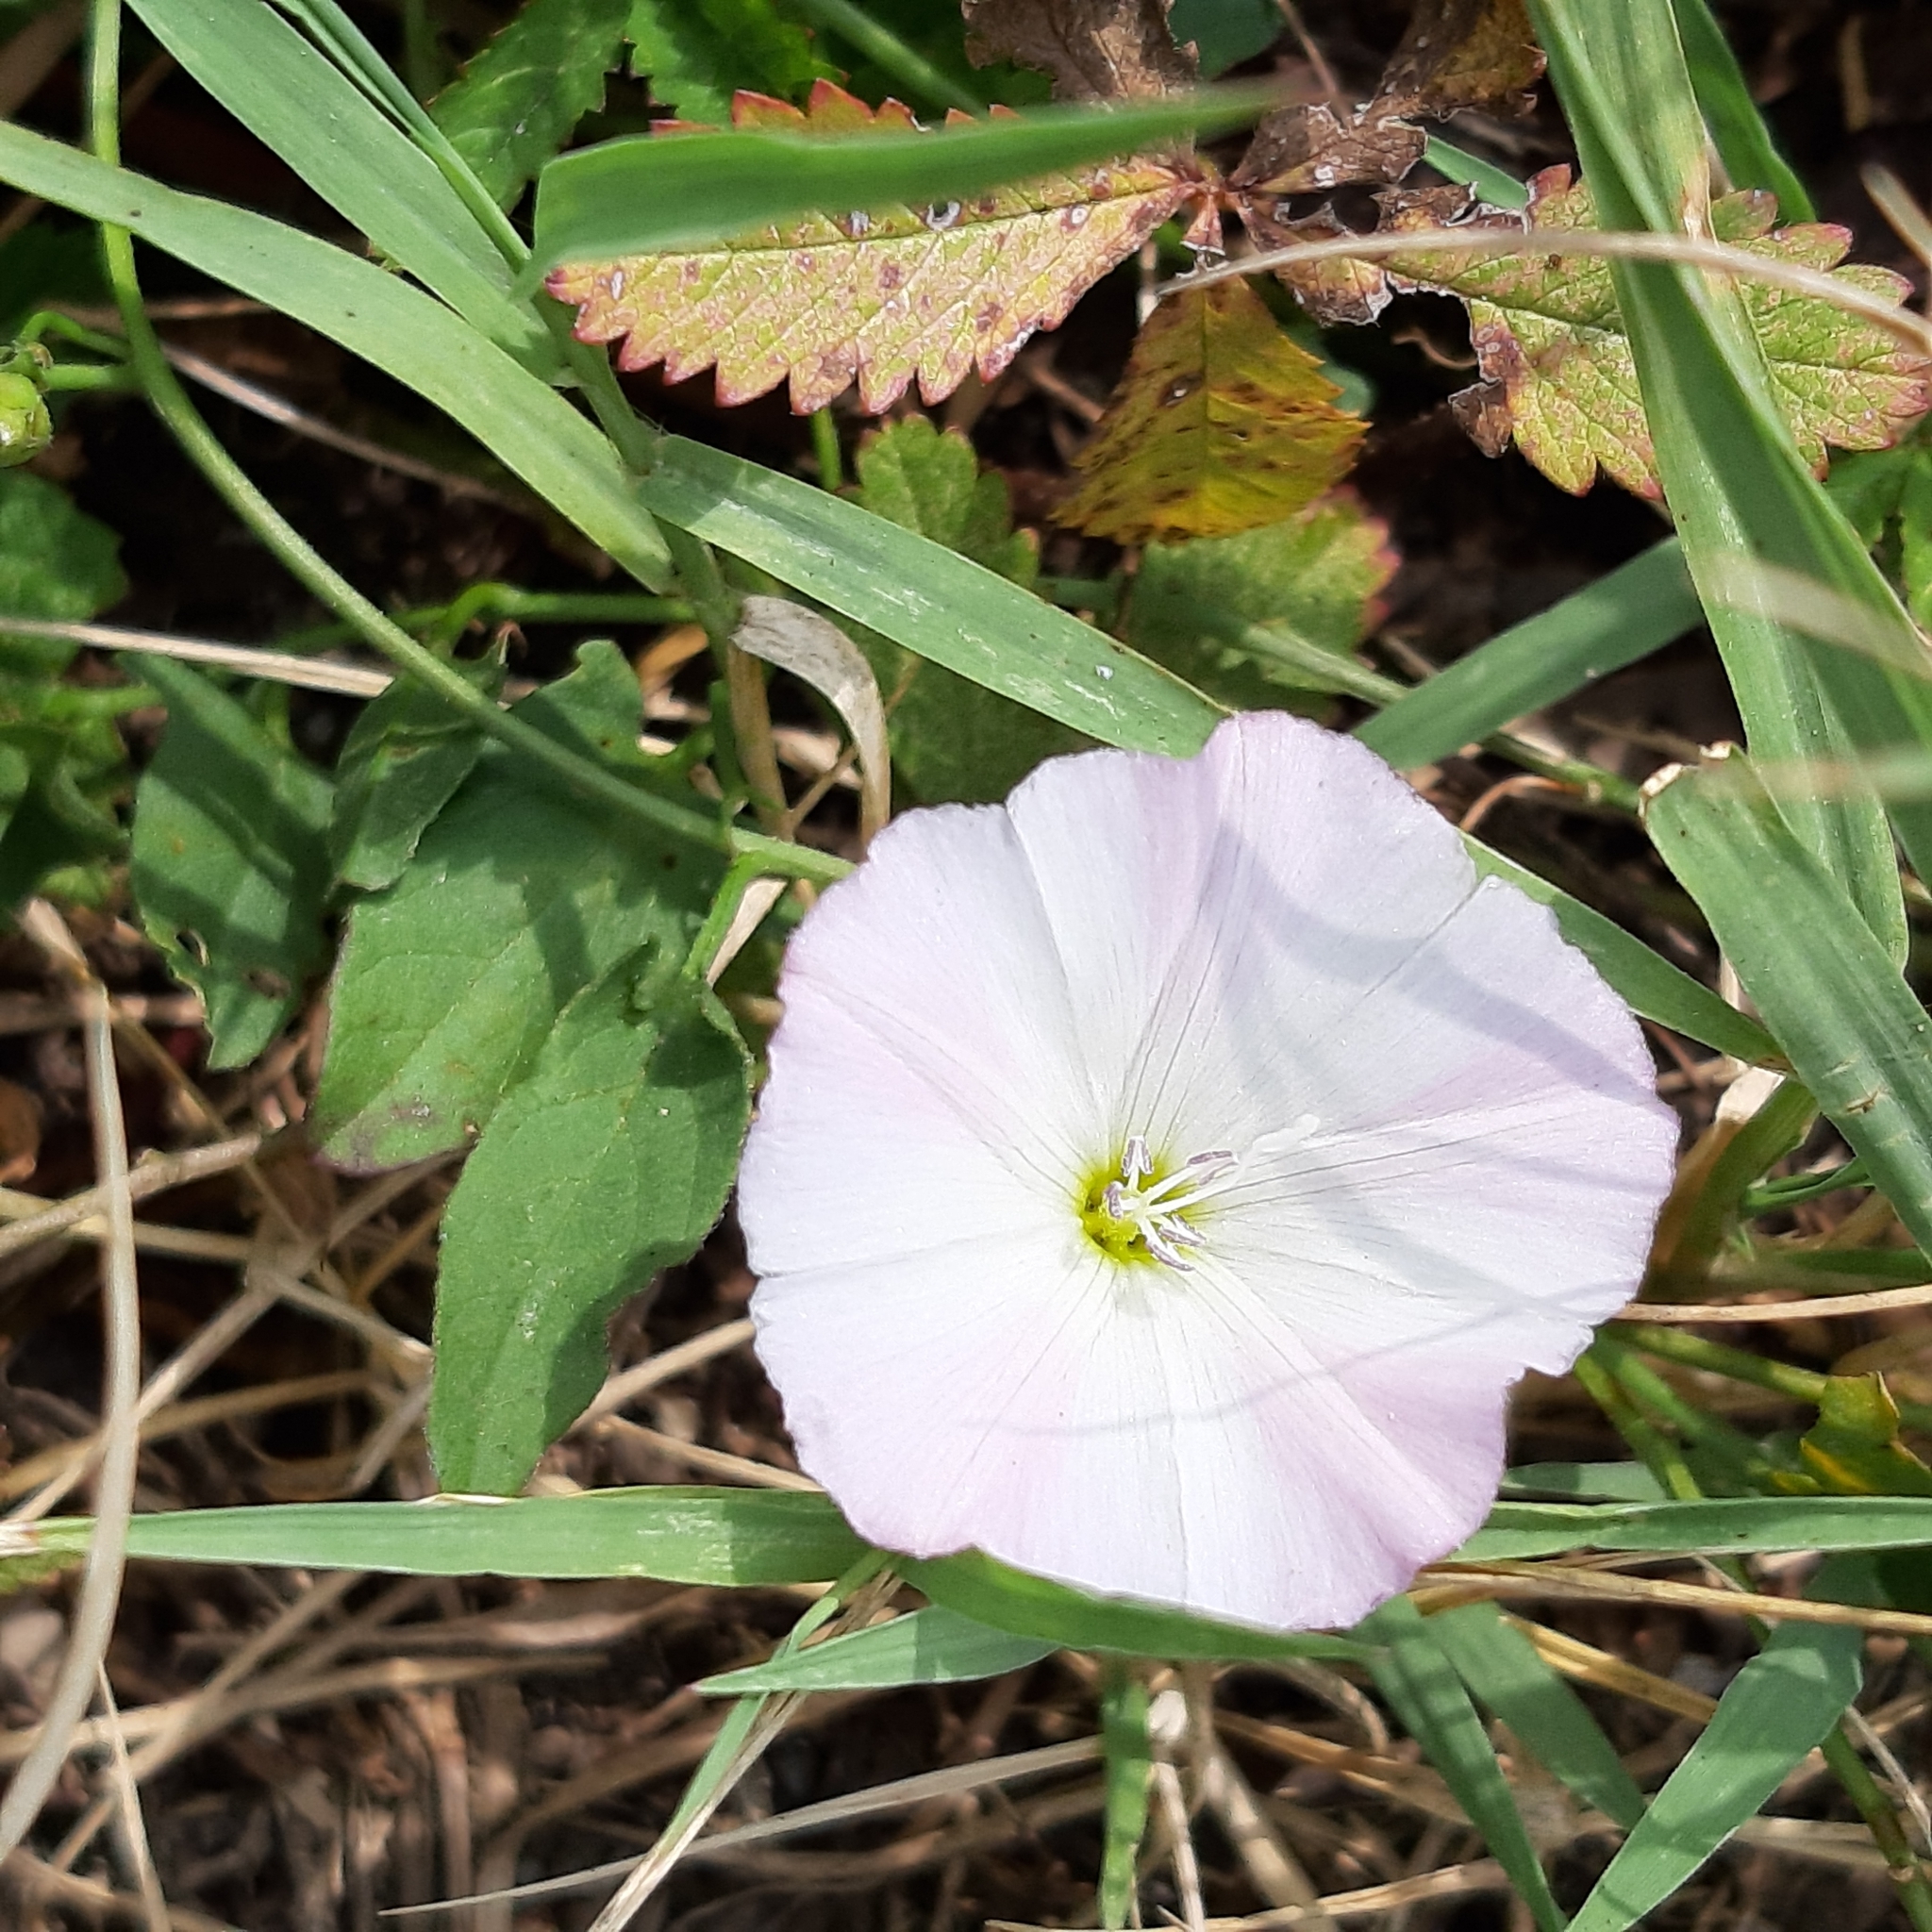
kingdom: Plantae
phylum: Tracheophyta
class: Magnoliopsida
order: Solanales
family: Convolvulaceae
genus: Convolvulus
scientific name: Convolvulus arvensis
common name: Field bindweed
